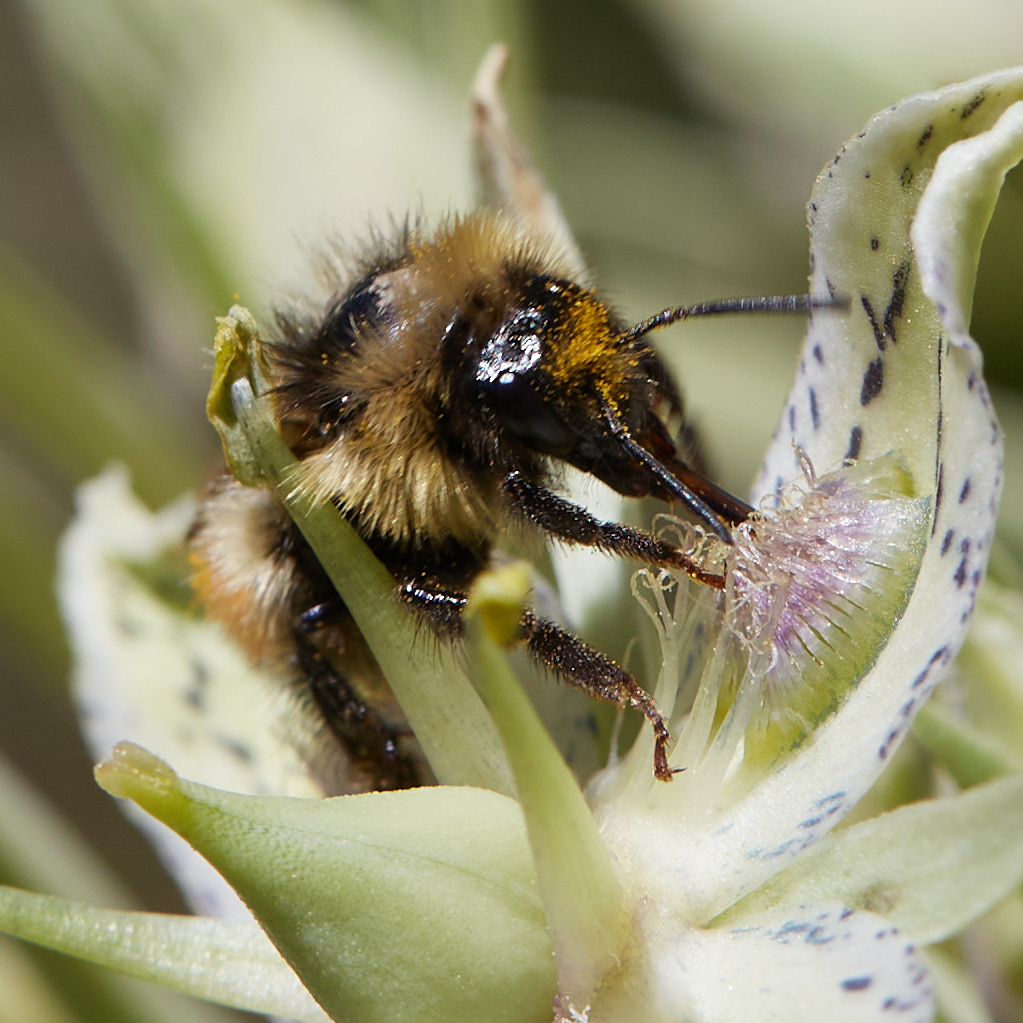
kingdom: Animalia
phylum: Arthropoda
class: Insecta
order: Hymenoptera
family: Apidae
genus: Bombus
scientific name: Bombus sylvicola
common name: Forest bumble bee
